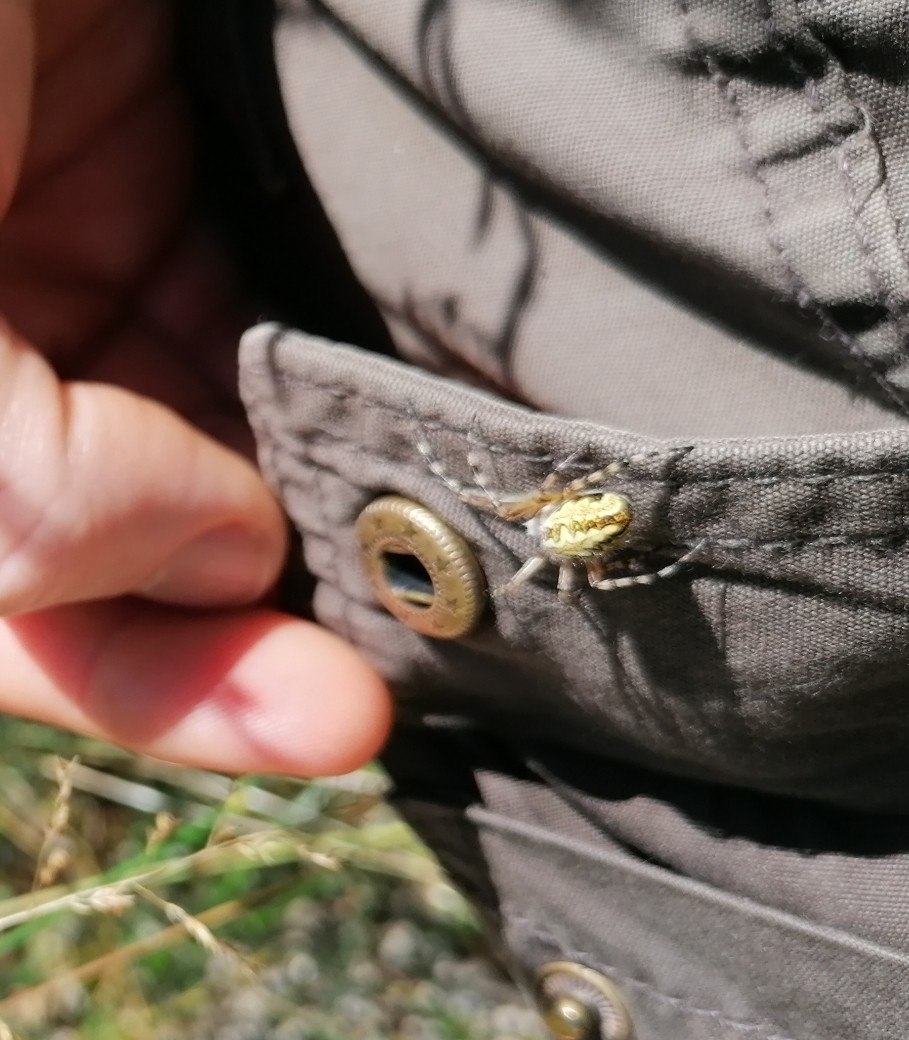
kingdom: Animalia
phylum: Arthropoda
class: Arachnida
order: Araneae
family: Araneidae
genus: Aculepeira
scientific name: Aculepeira ceropegia
